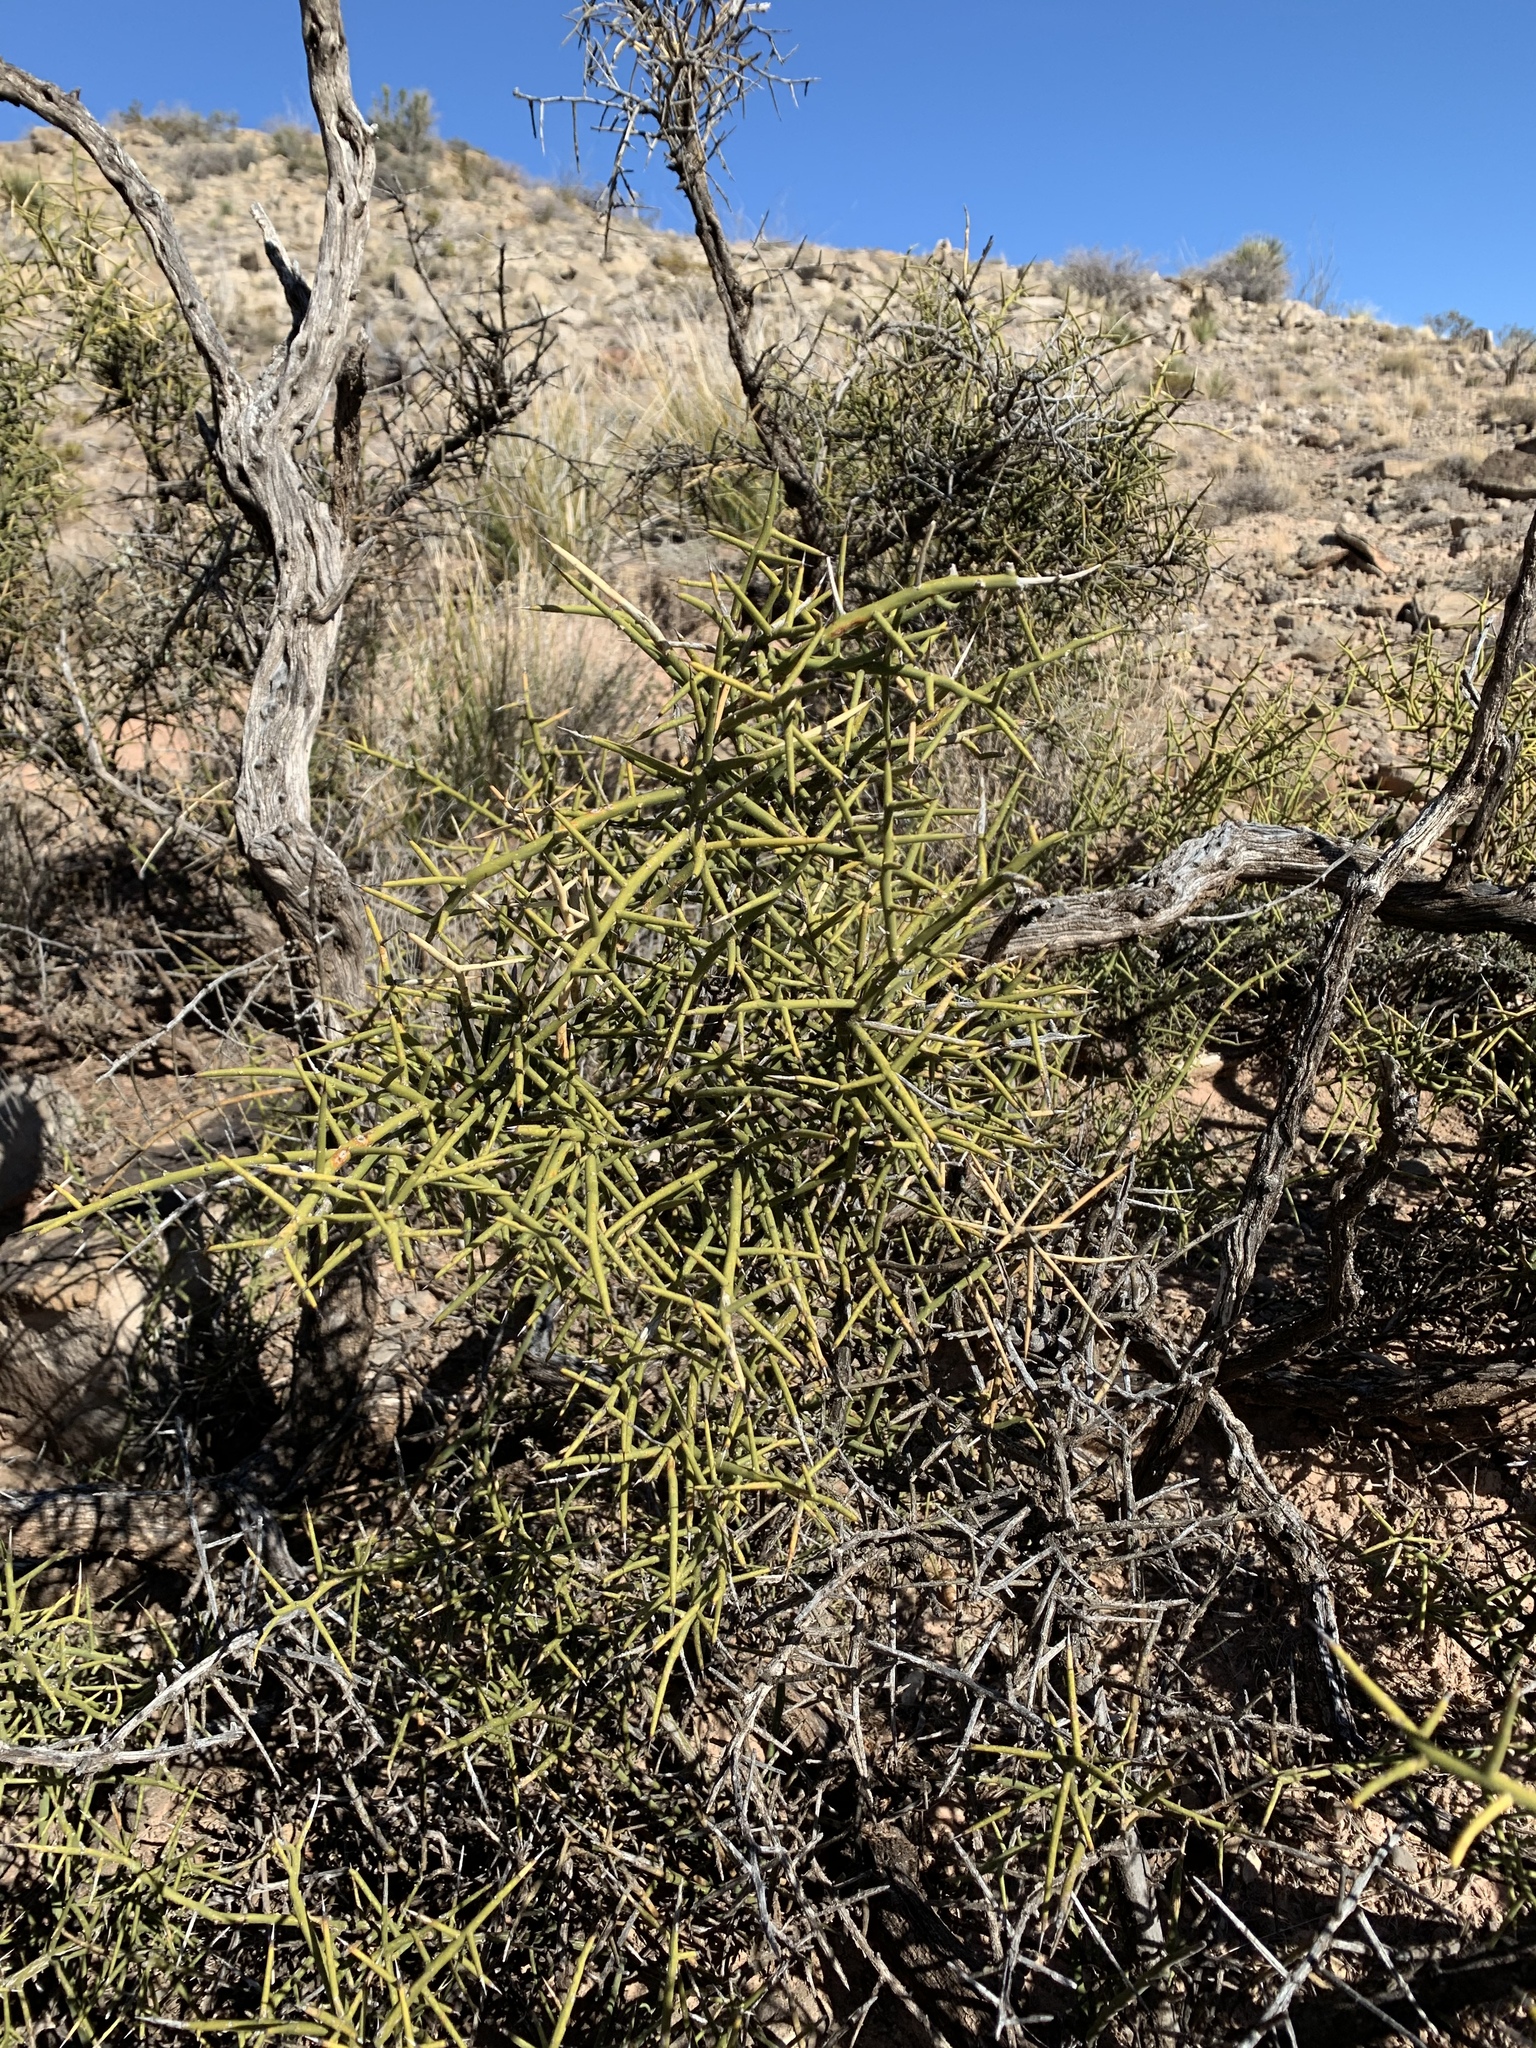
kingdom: Plantae
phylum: Tracheophyta
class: Magnoliopsida
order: Brassicales
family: Koeberliniaceae
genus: Koeberlinia
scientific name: Koeberlinia spinosa
